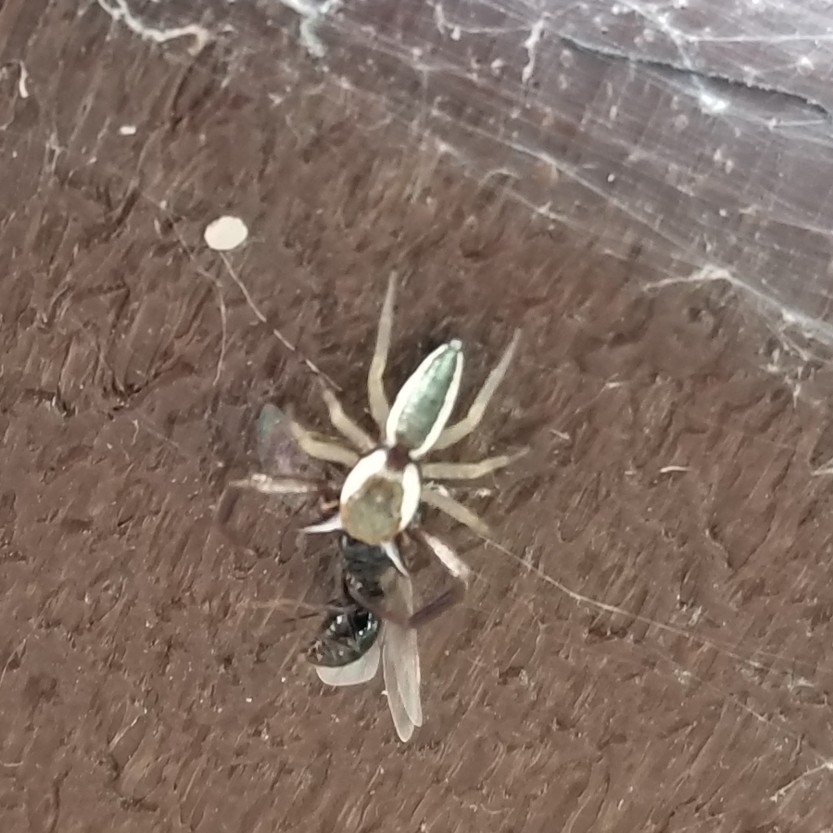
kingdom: Animalia
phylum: Arthropoda
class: Arachnida
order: Araneae
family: Salticidae
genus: Hentzia
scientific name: Hentzia palmarum
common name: Common hentz jumping spider
